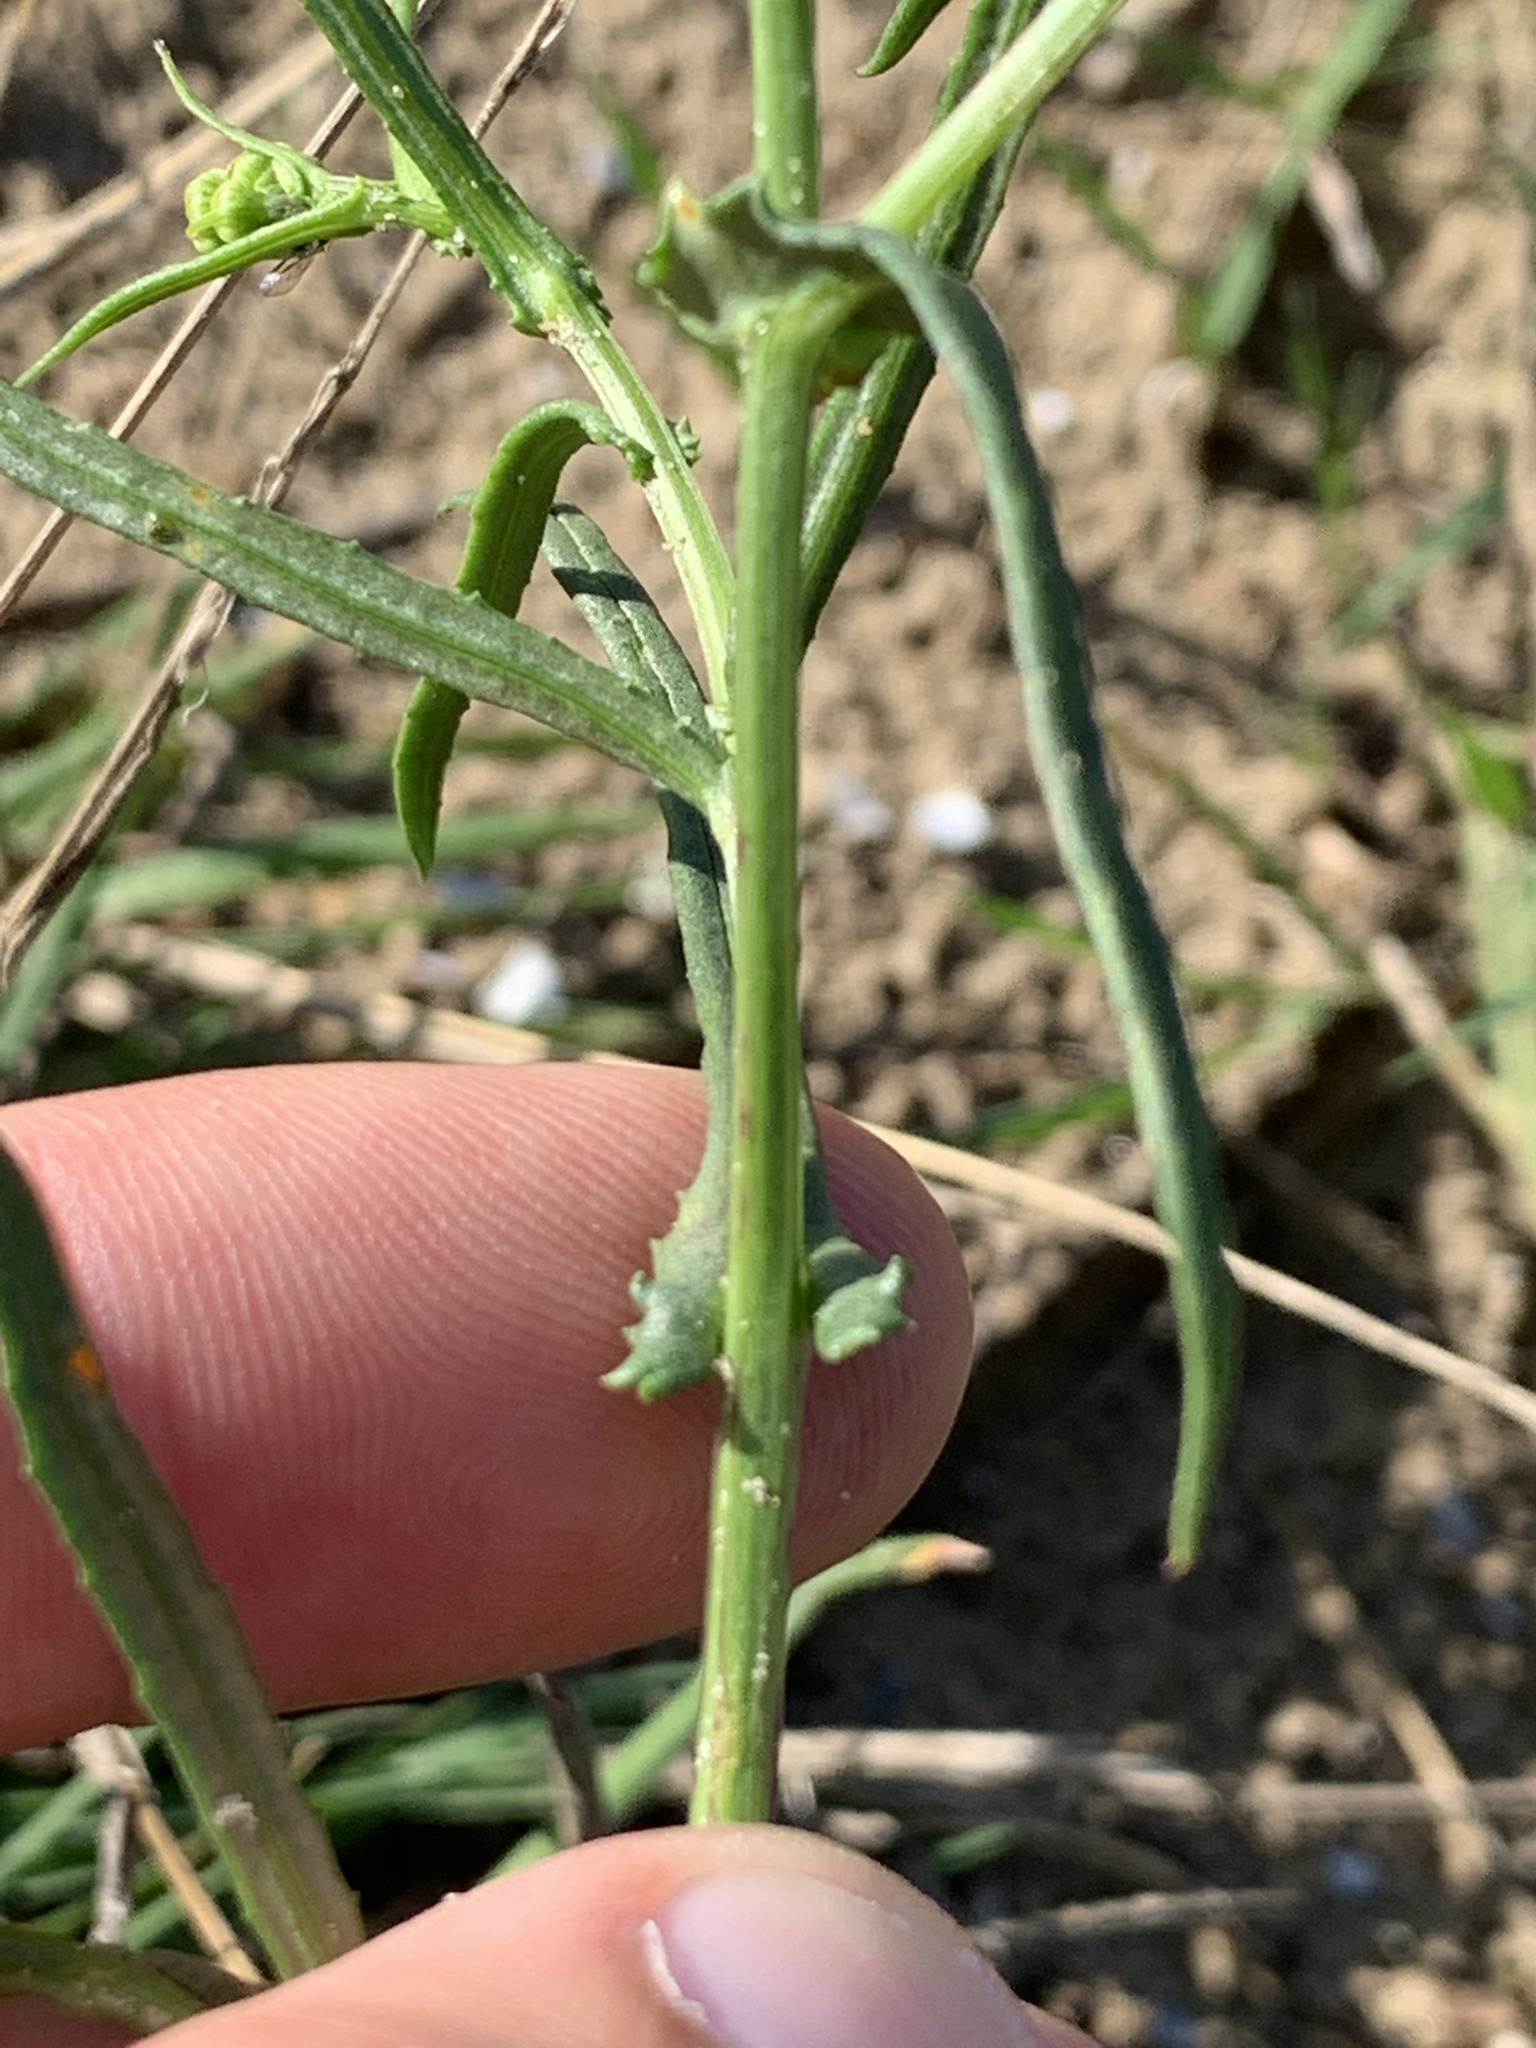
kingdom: Plantae
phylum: Tracheophyta
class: Magnoliopsida
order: Asterales
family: Asteraceae
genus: Senecio
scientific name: Senecio inaequidens
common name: Narrow-leaved ragwort
